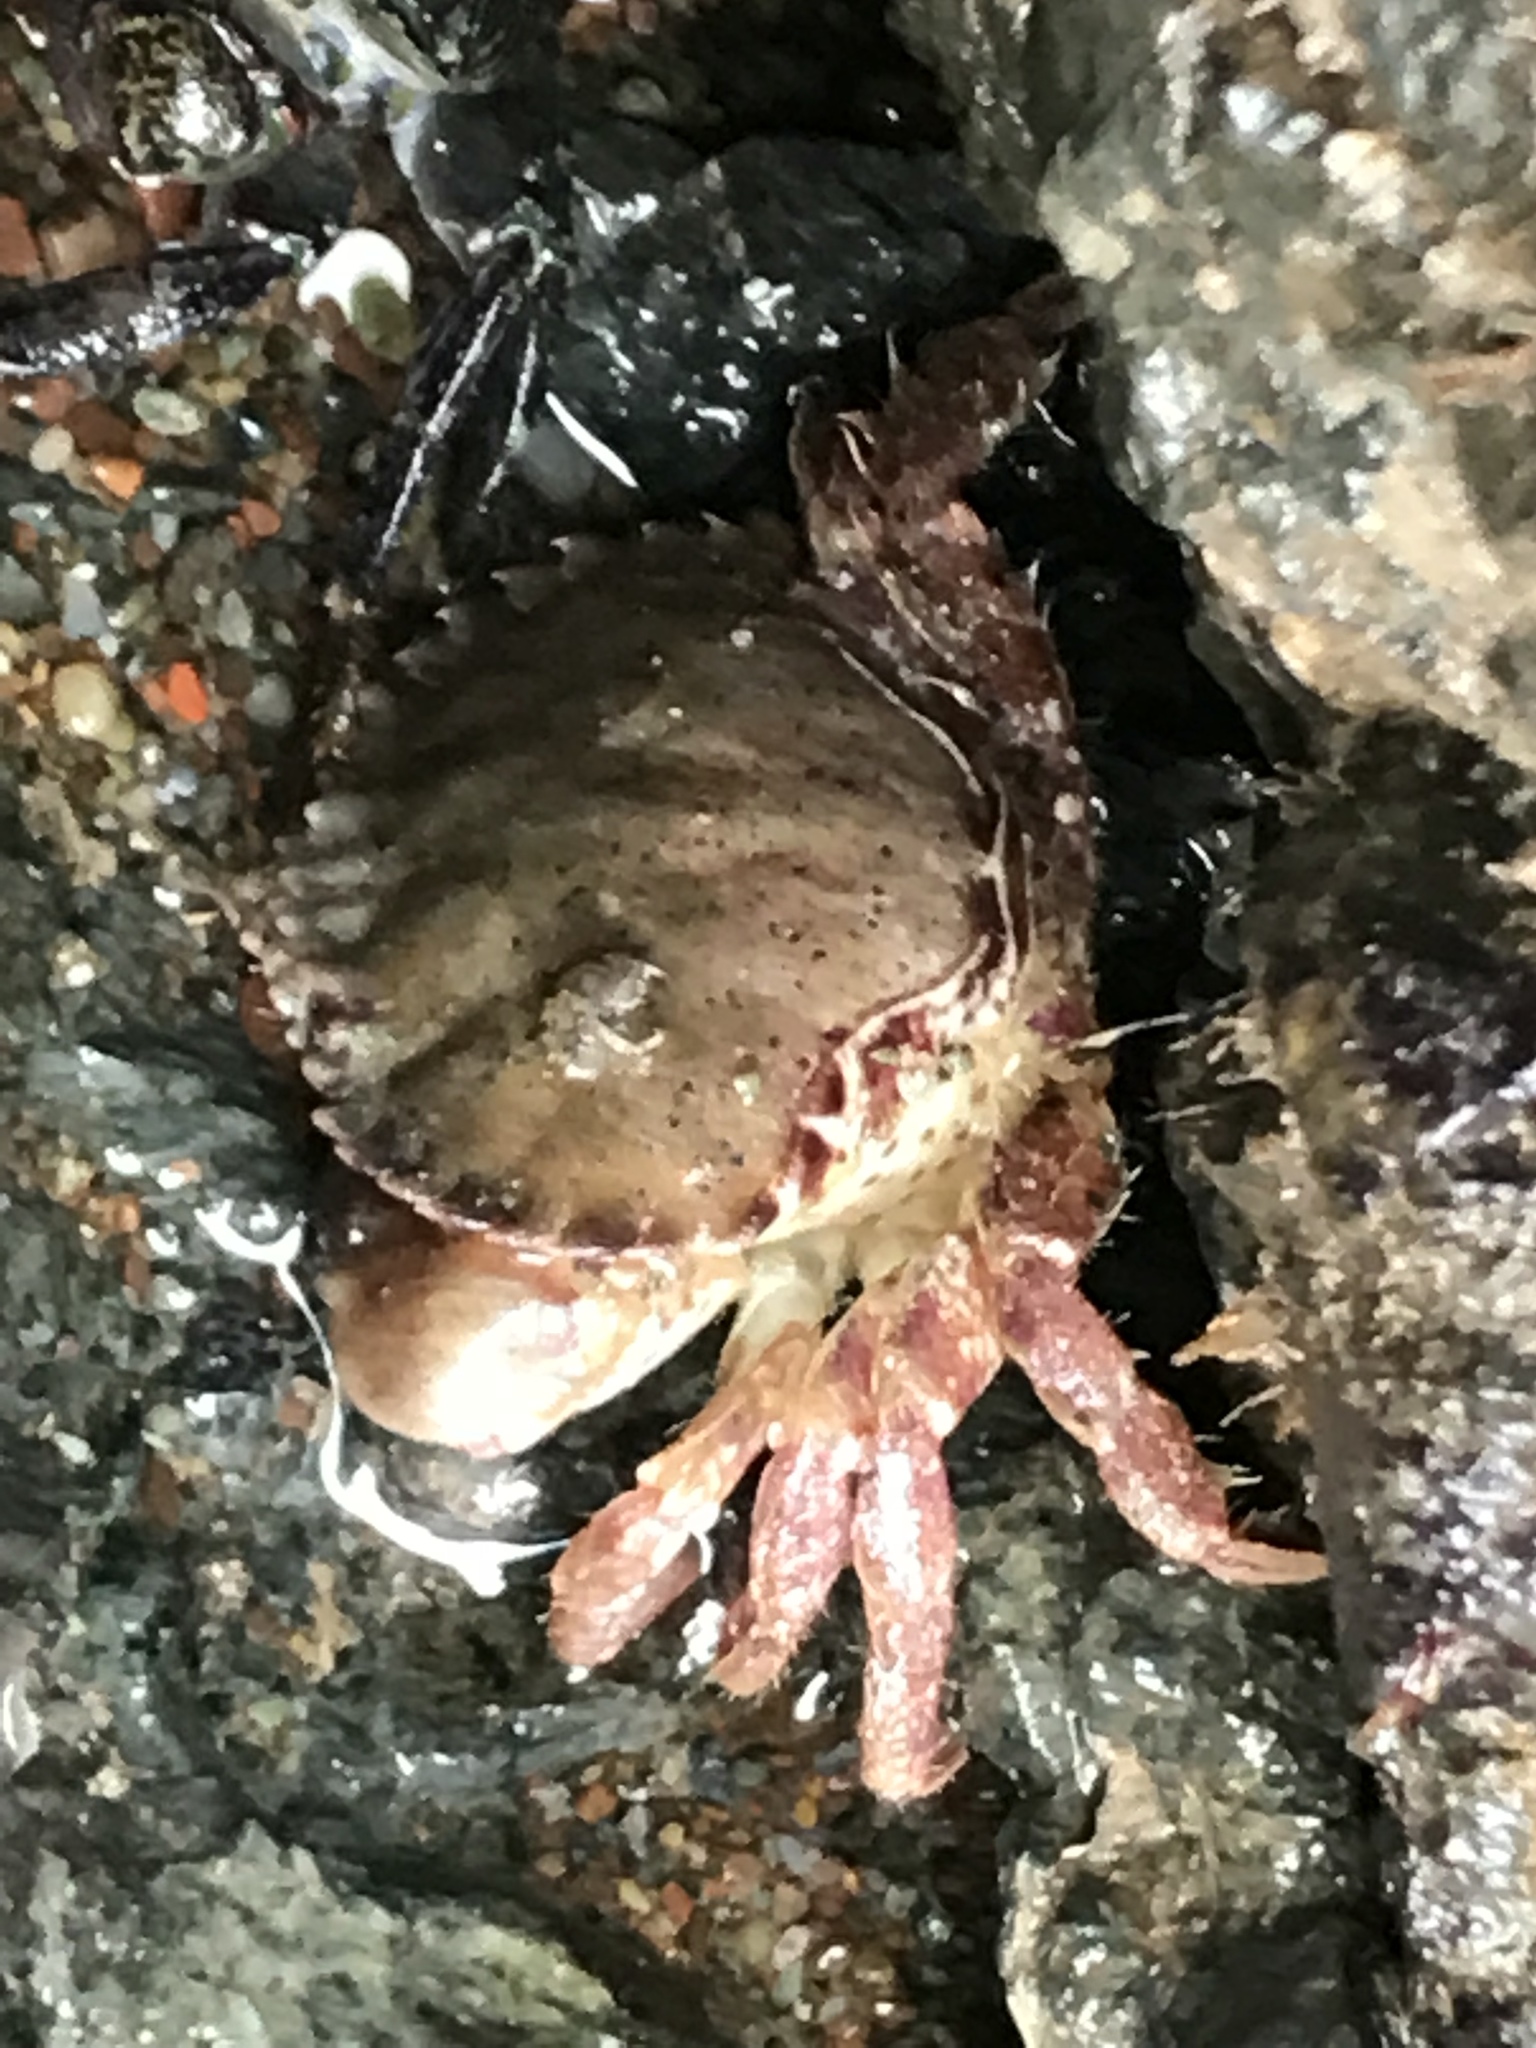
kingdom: Animalia
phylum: Arthropoda
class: Malacostraca
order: Decapoda
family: Cancridae
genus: Romaleon
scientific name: Romaleon antennarium
